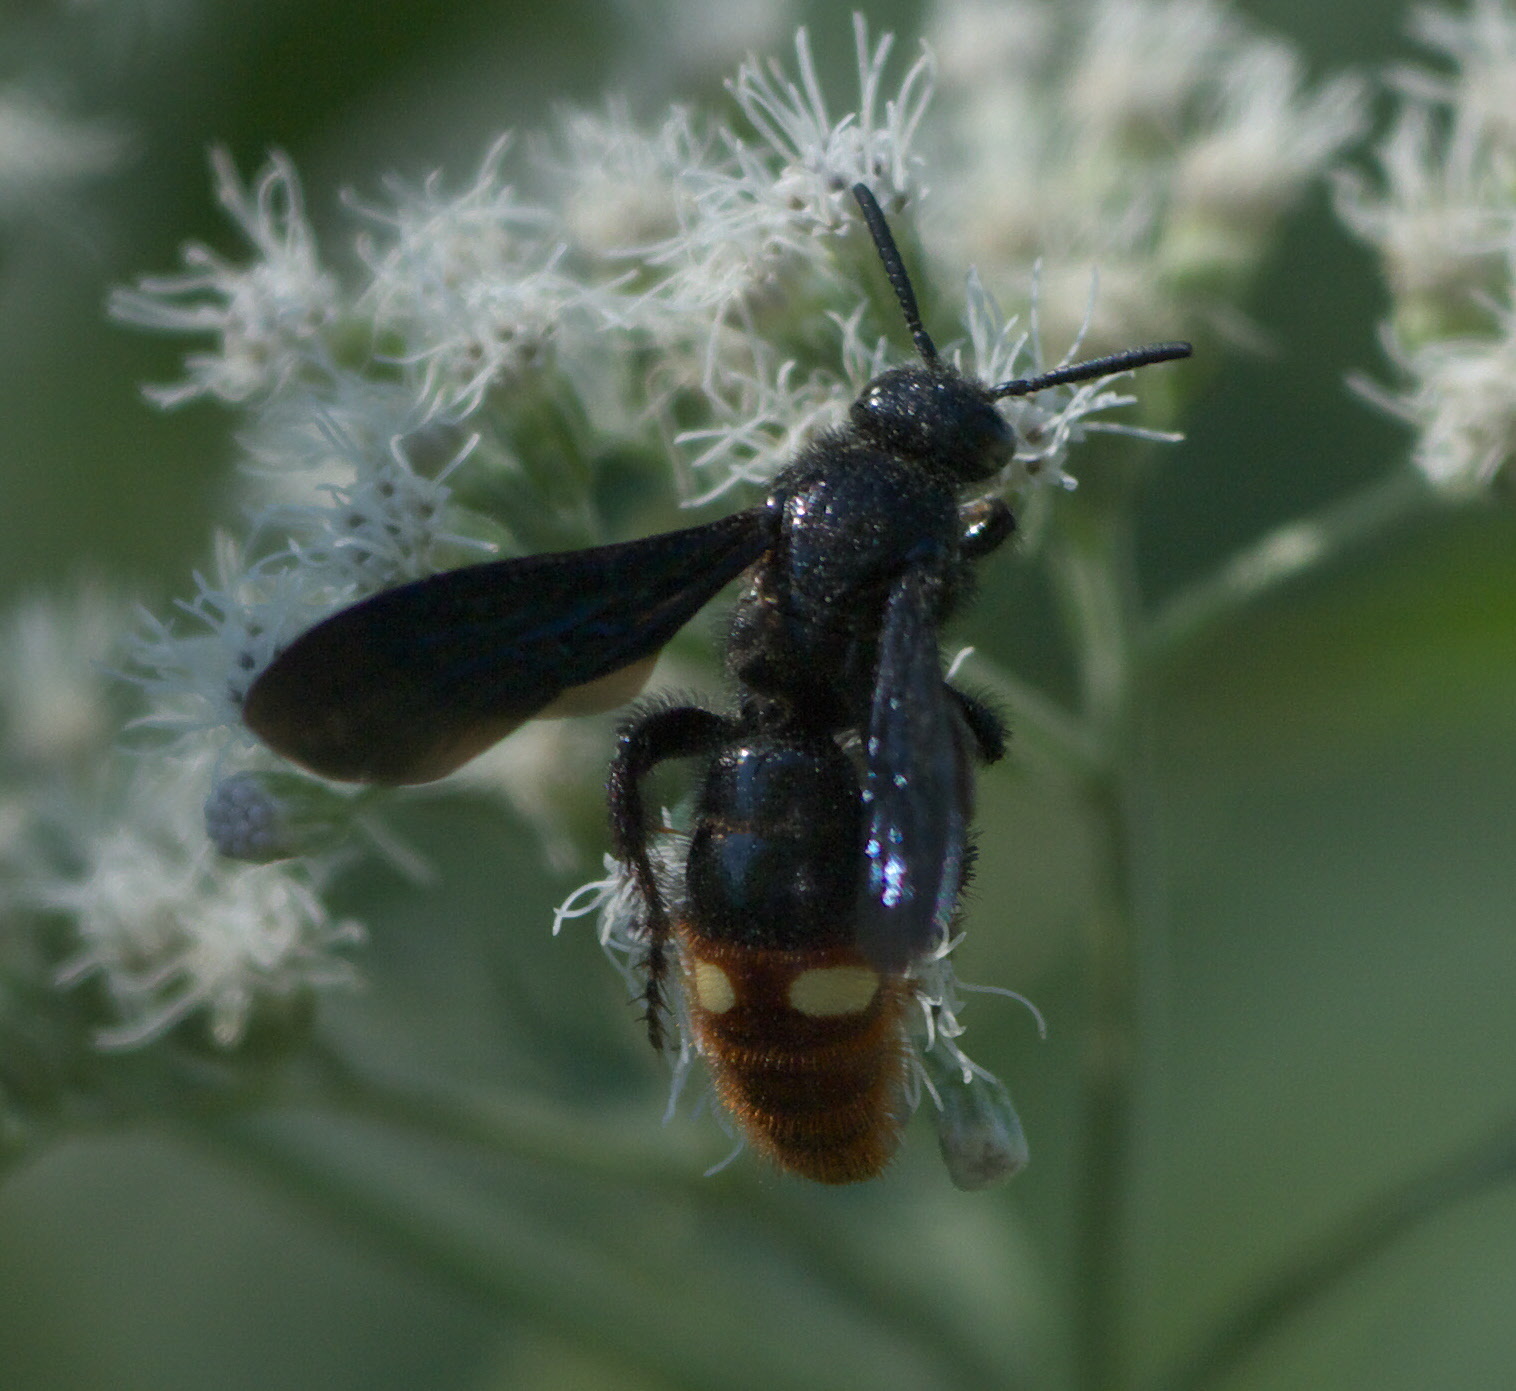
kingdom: Animalia
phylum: Arthropoda
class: Insecta
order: Hymenoptera
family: Scoliidae
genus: Scolia
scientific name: Scolia dubia
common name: Blue-winged scoliid wasp
